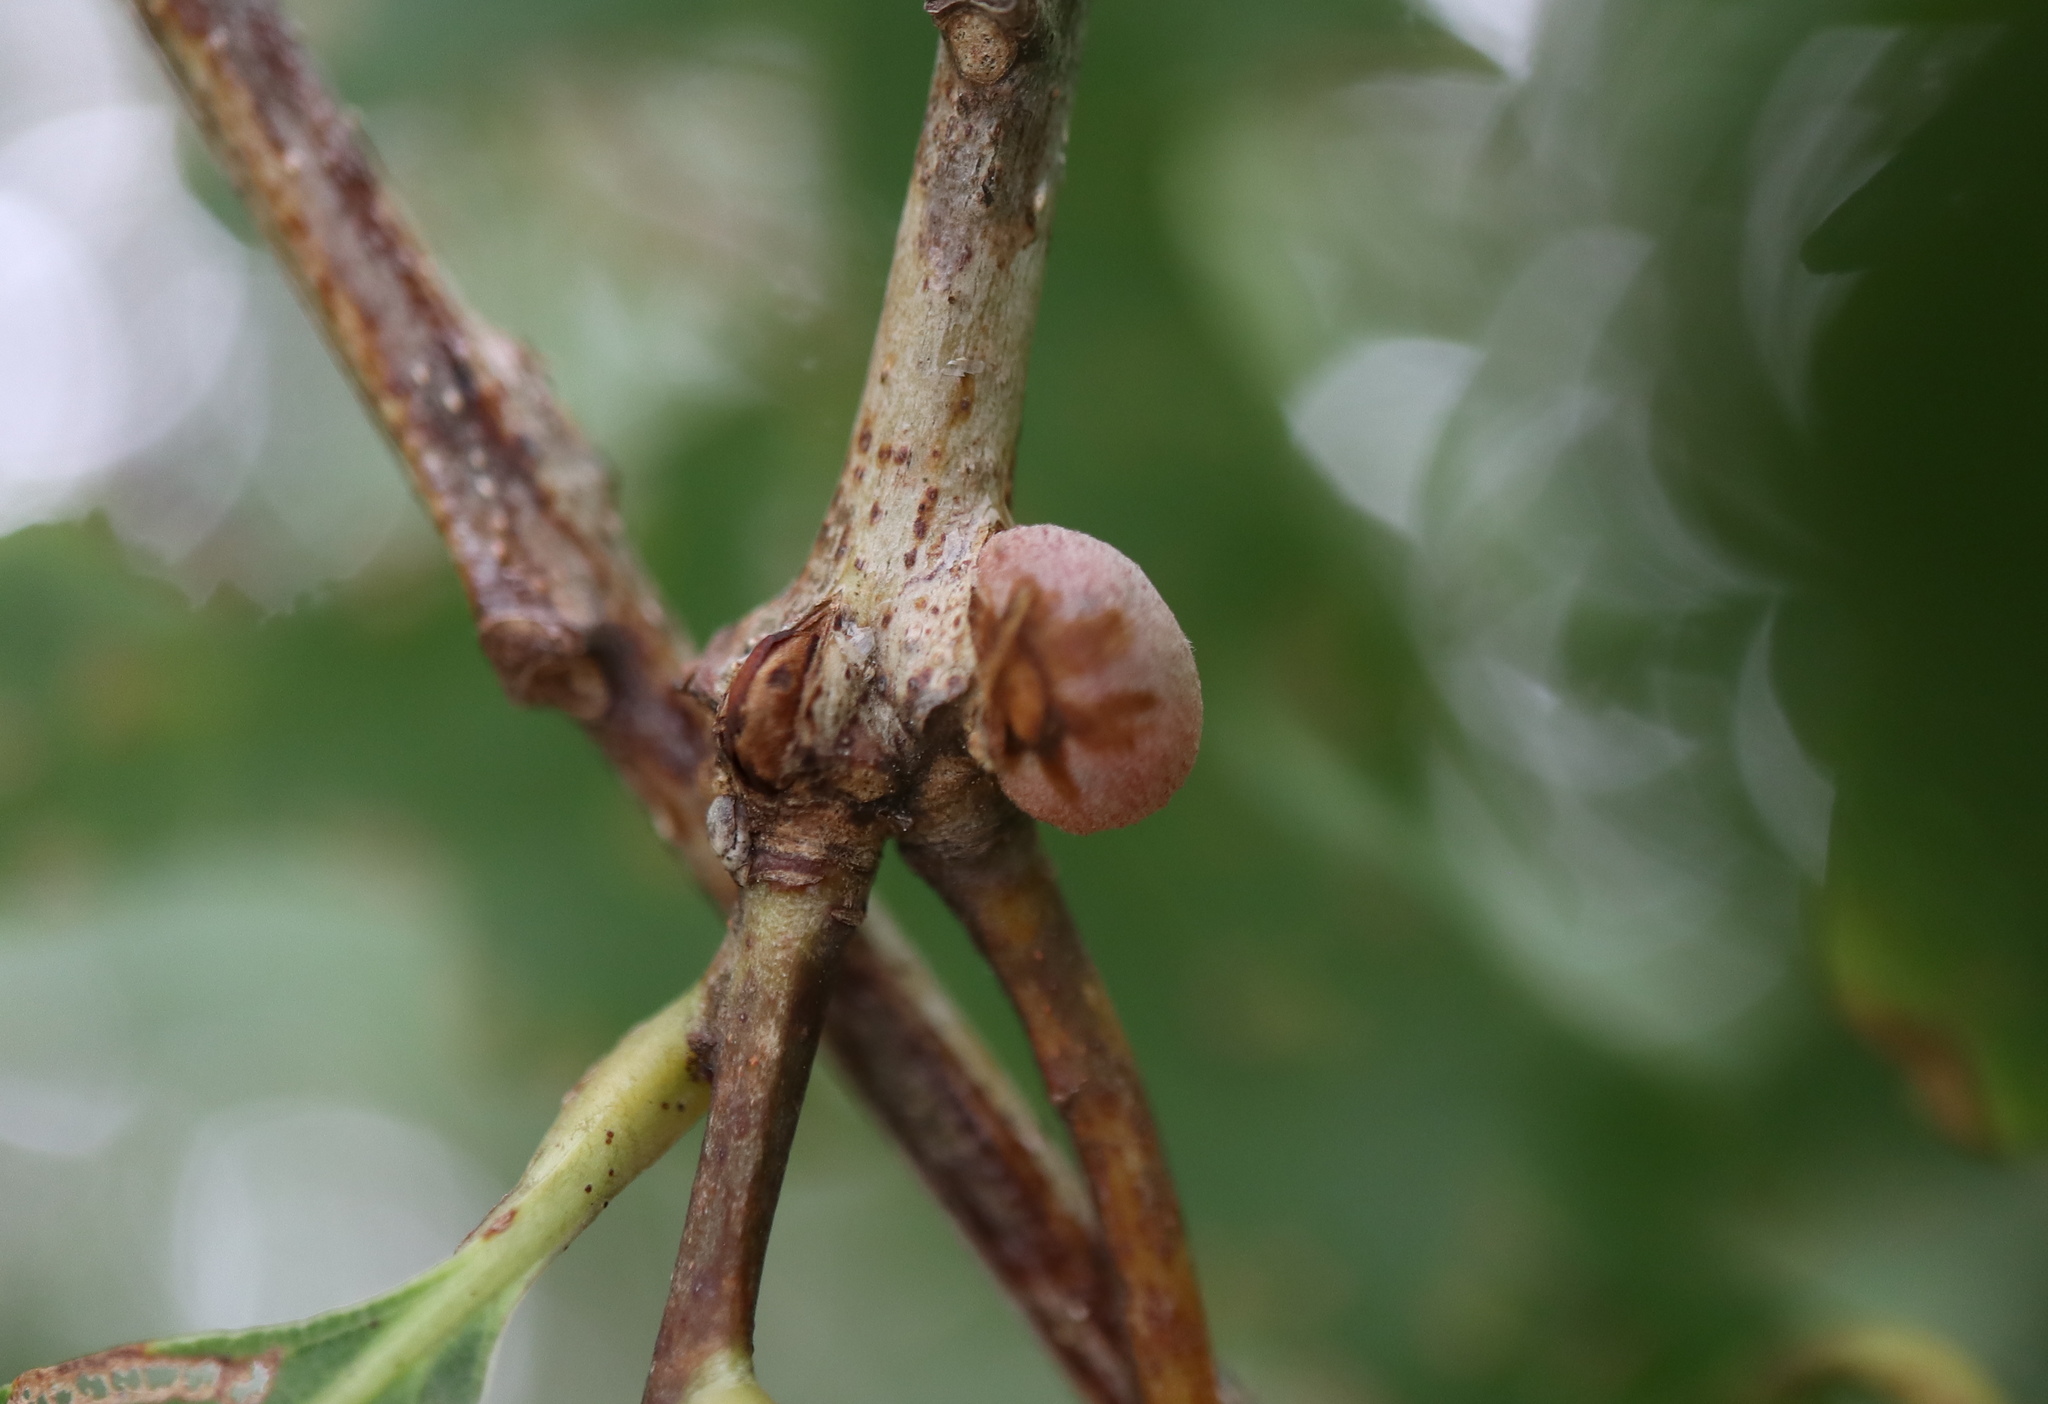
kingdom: Animalia
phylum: Arthropoda
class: Insecta
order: Hymenoptera
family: Cynipidae
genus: Disholcaspis
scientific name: Disholcaspis quercusglobulus
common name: Round bullet gall wasp
